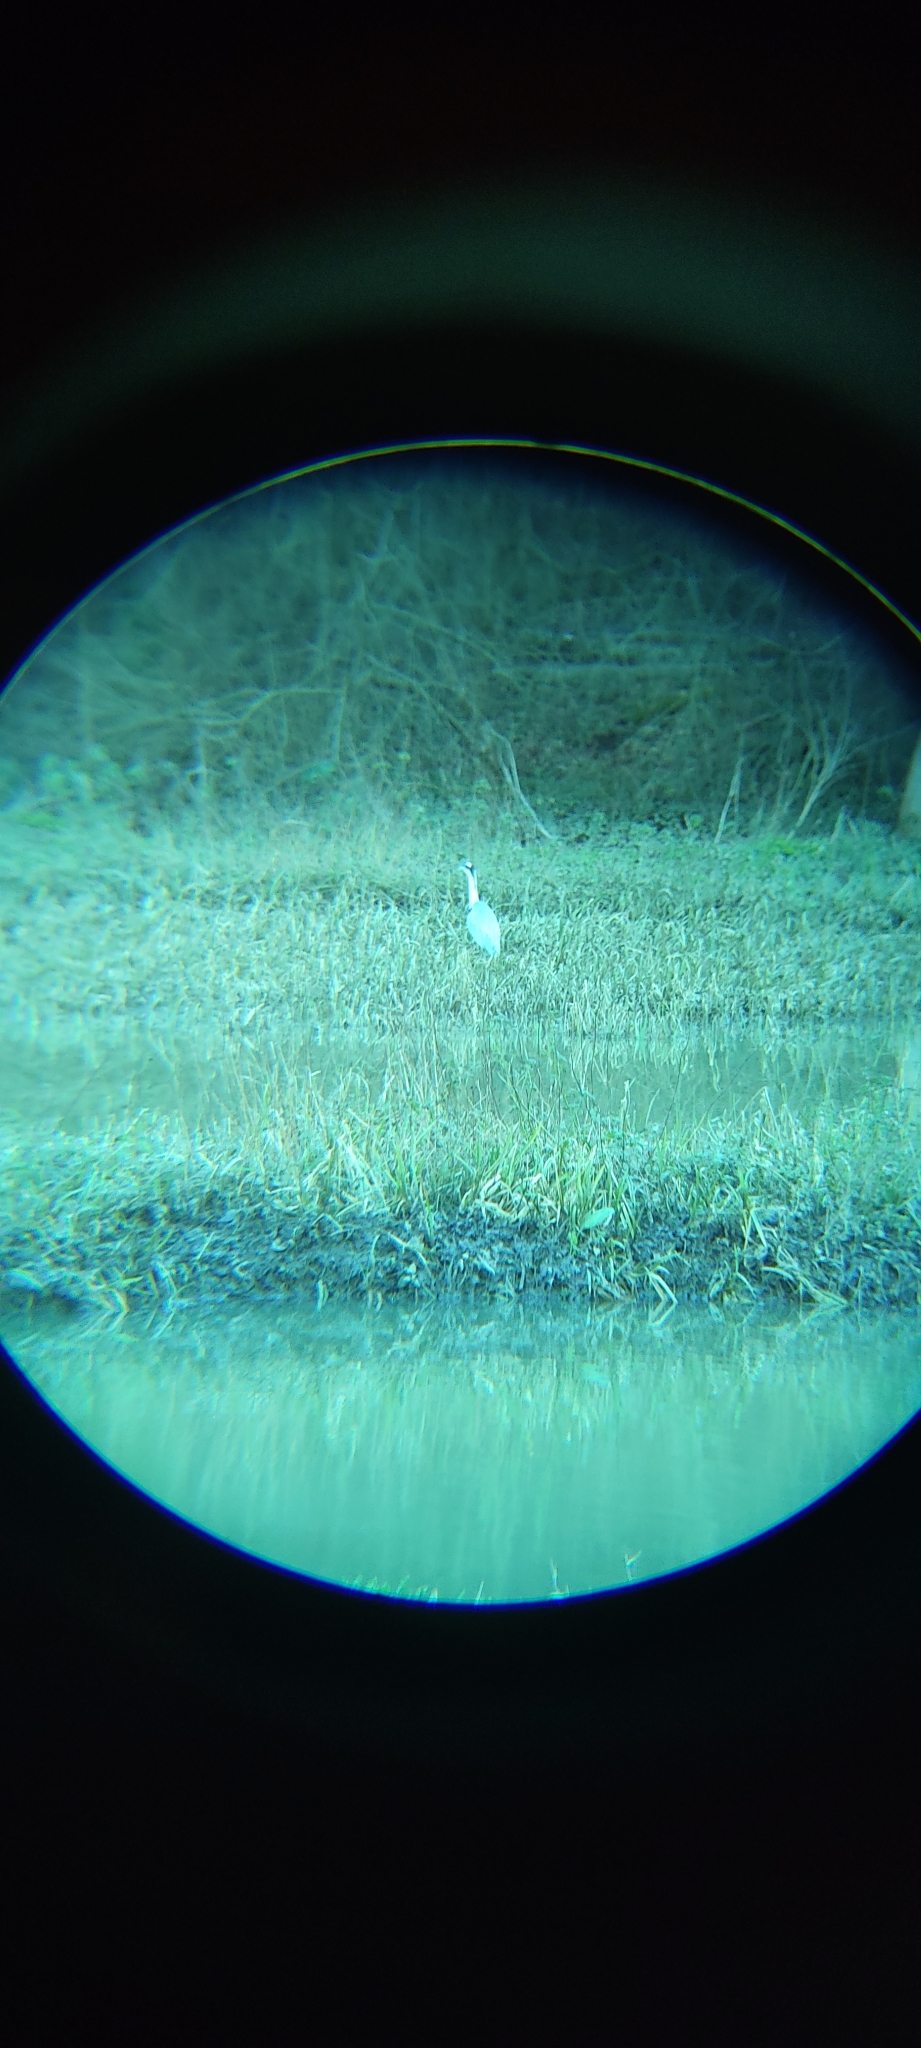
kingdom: Animalia
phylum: Chordata
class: Aves
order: Pelecaniformes
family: Ardeidae
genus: Ardea
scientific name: Ardea cinerea
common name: Grey heron
